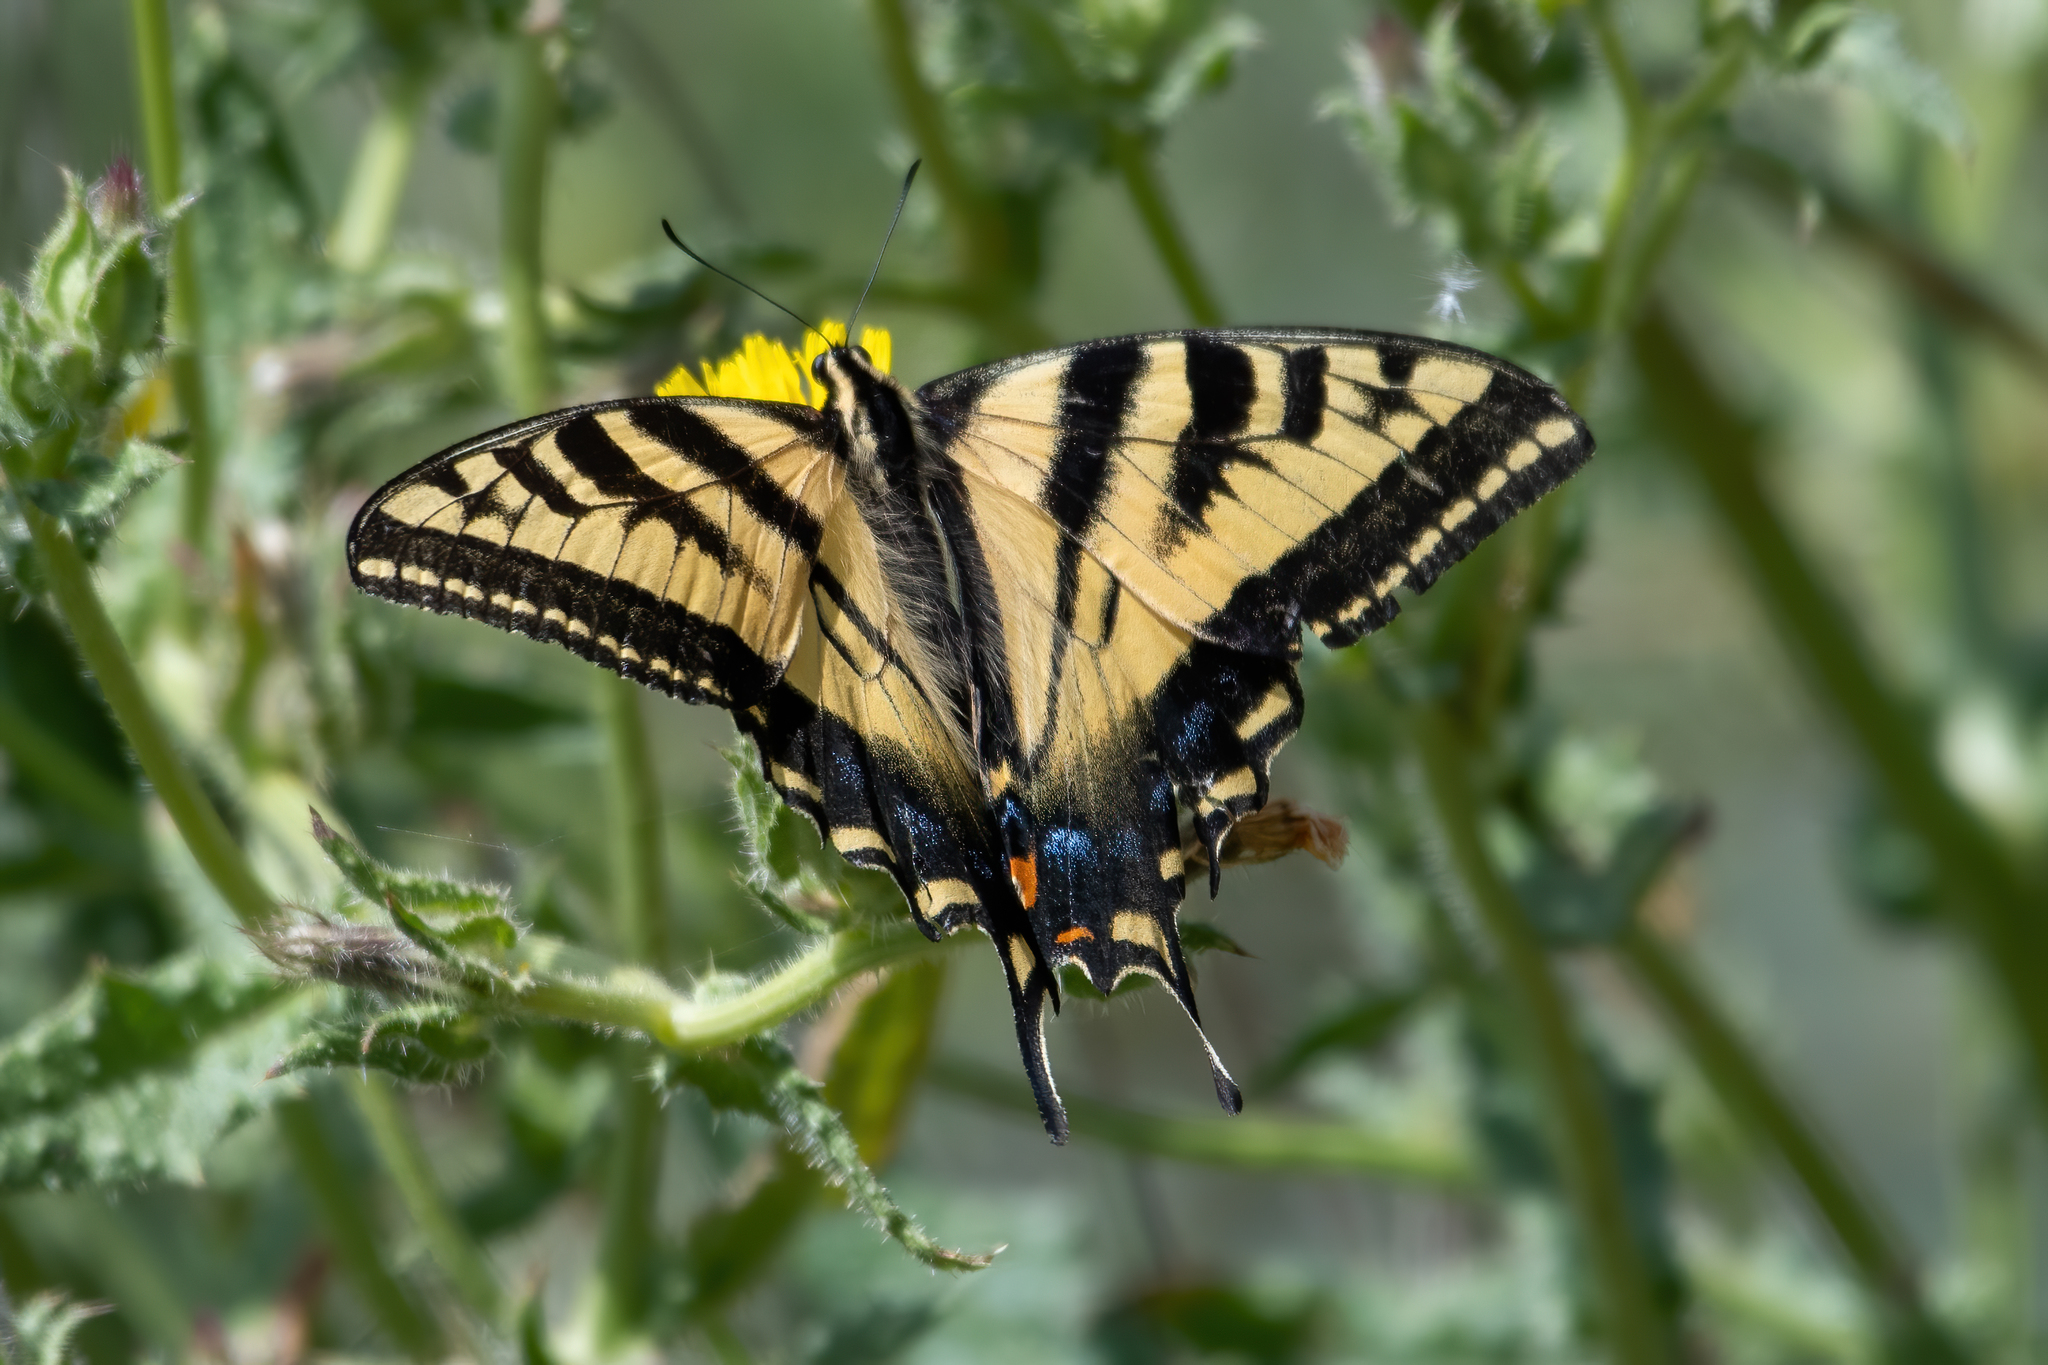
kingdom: Animalia
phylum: Arthropoda
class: Insecta
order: Lepidoptera
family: Papilionidae
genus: Papilio
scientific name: Papilio rutulus
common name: Western tiger swallowtail
